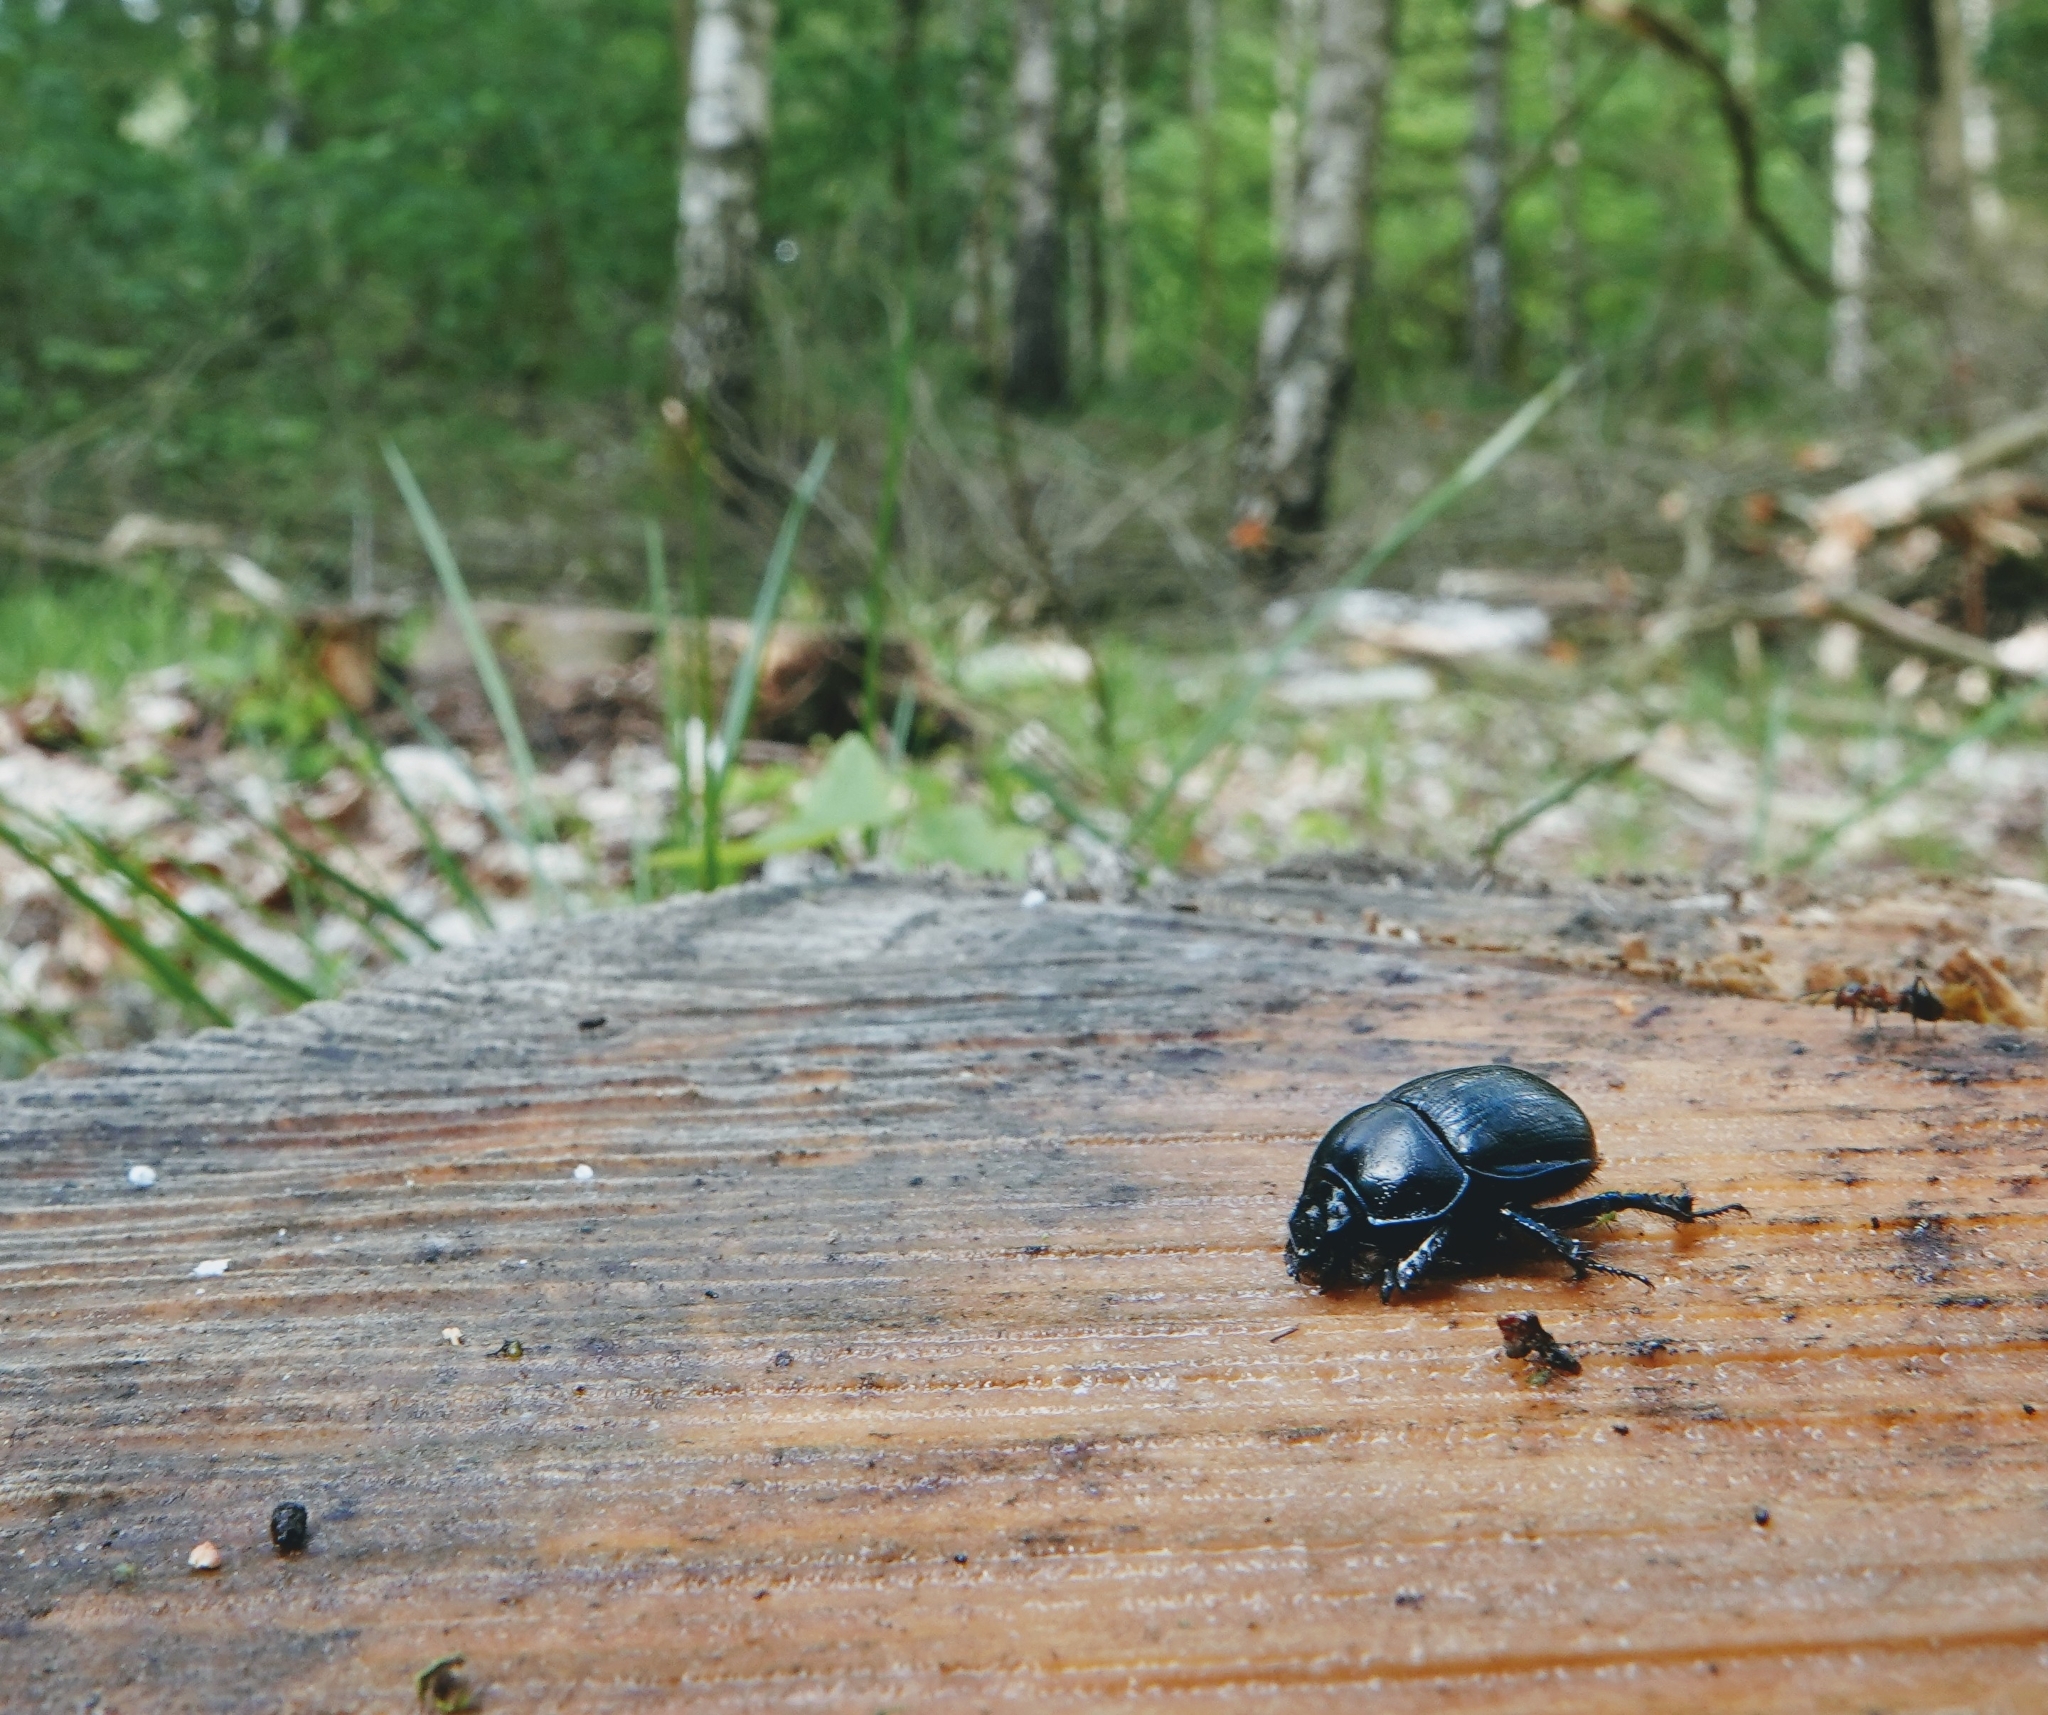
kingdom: Animalia
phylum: Arthropoda
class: Insecta
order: Coleoptera
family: Geotrupidae
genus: Anoplotrupes
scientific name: Anoplotrupes stercorosus
